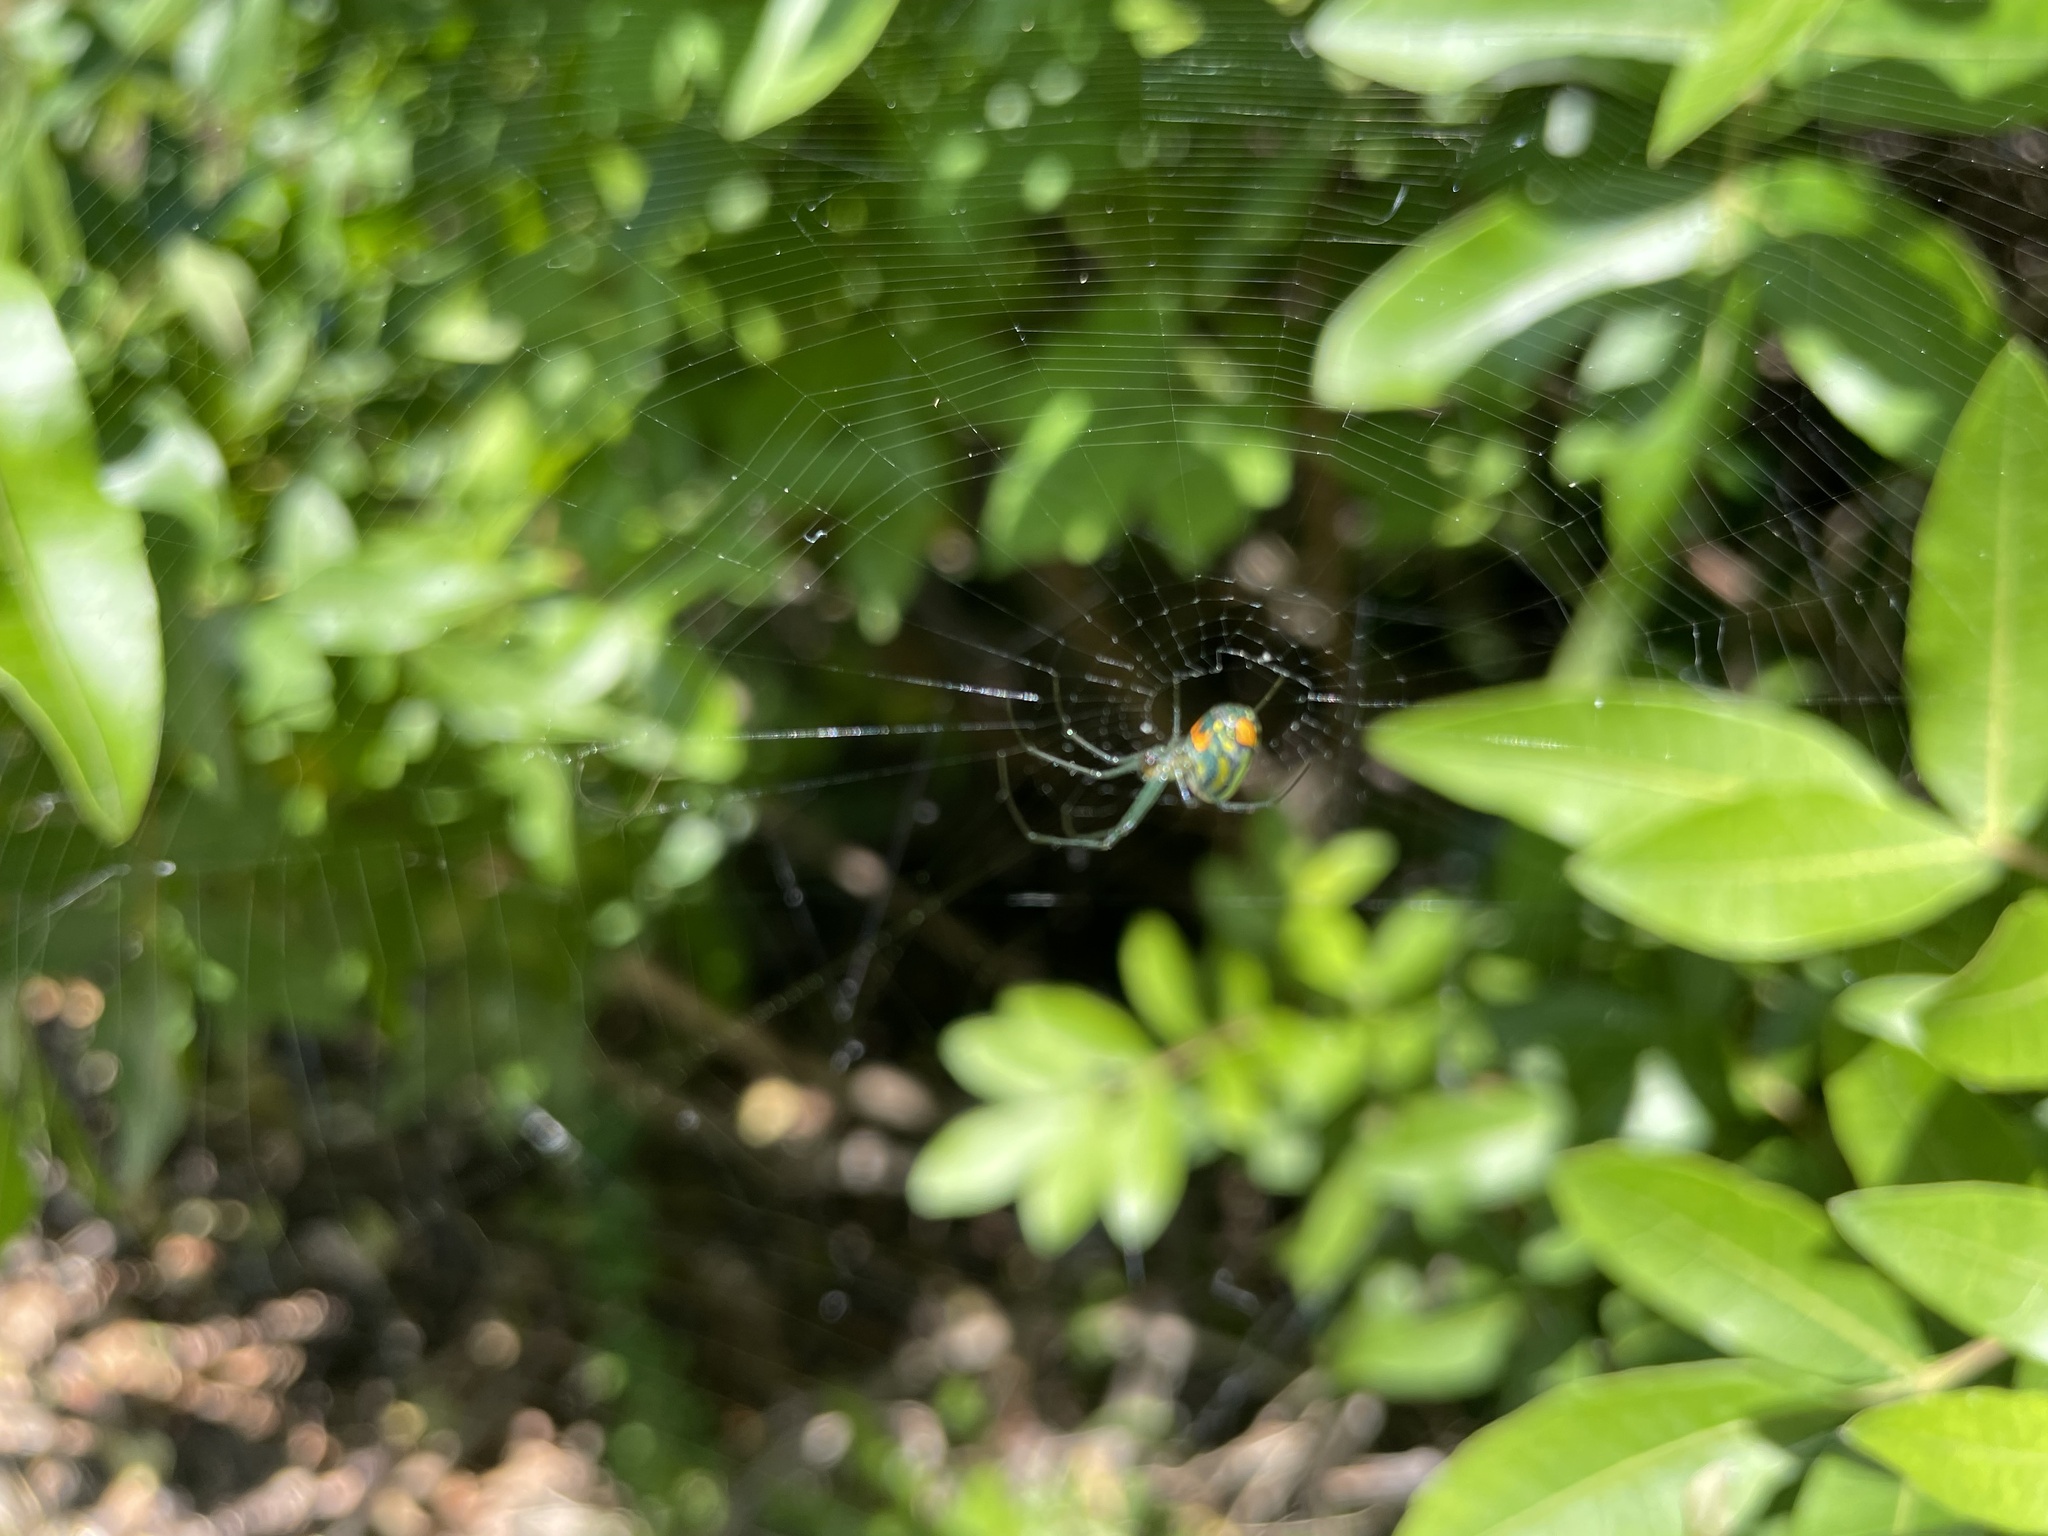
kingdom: Animalia
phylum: Arthropoda
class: Arachnida
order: Araneae
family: Tetragnathidae
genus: Leucauge
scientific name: Leucauge argyrobapta
